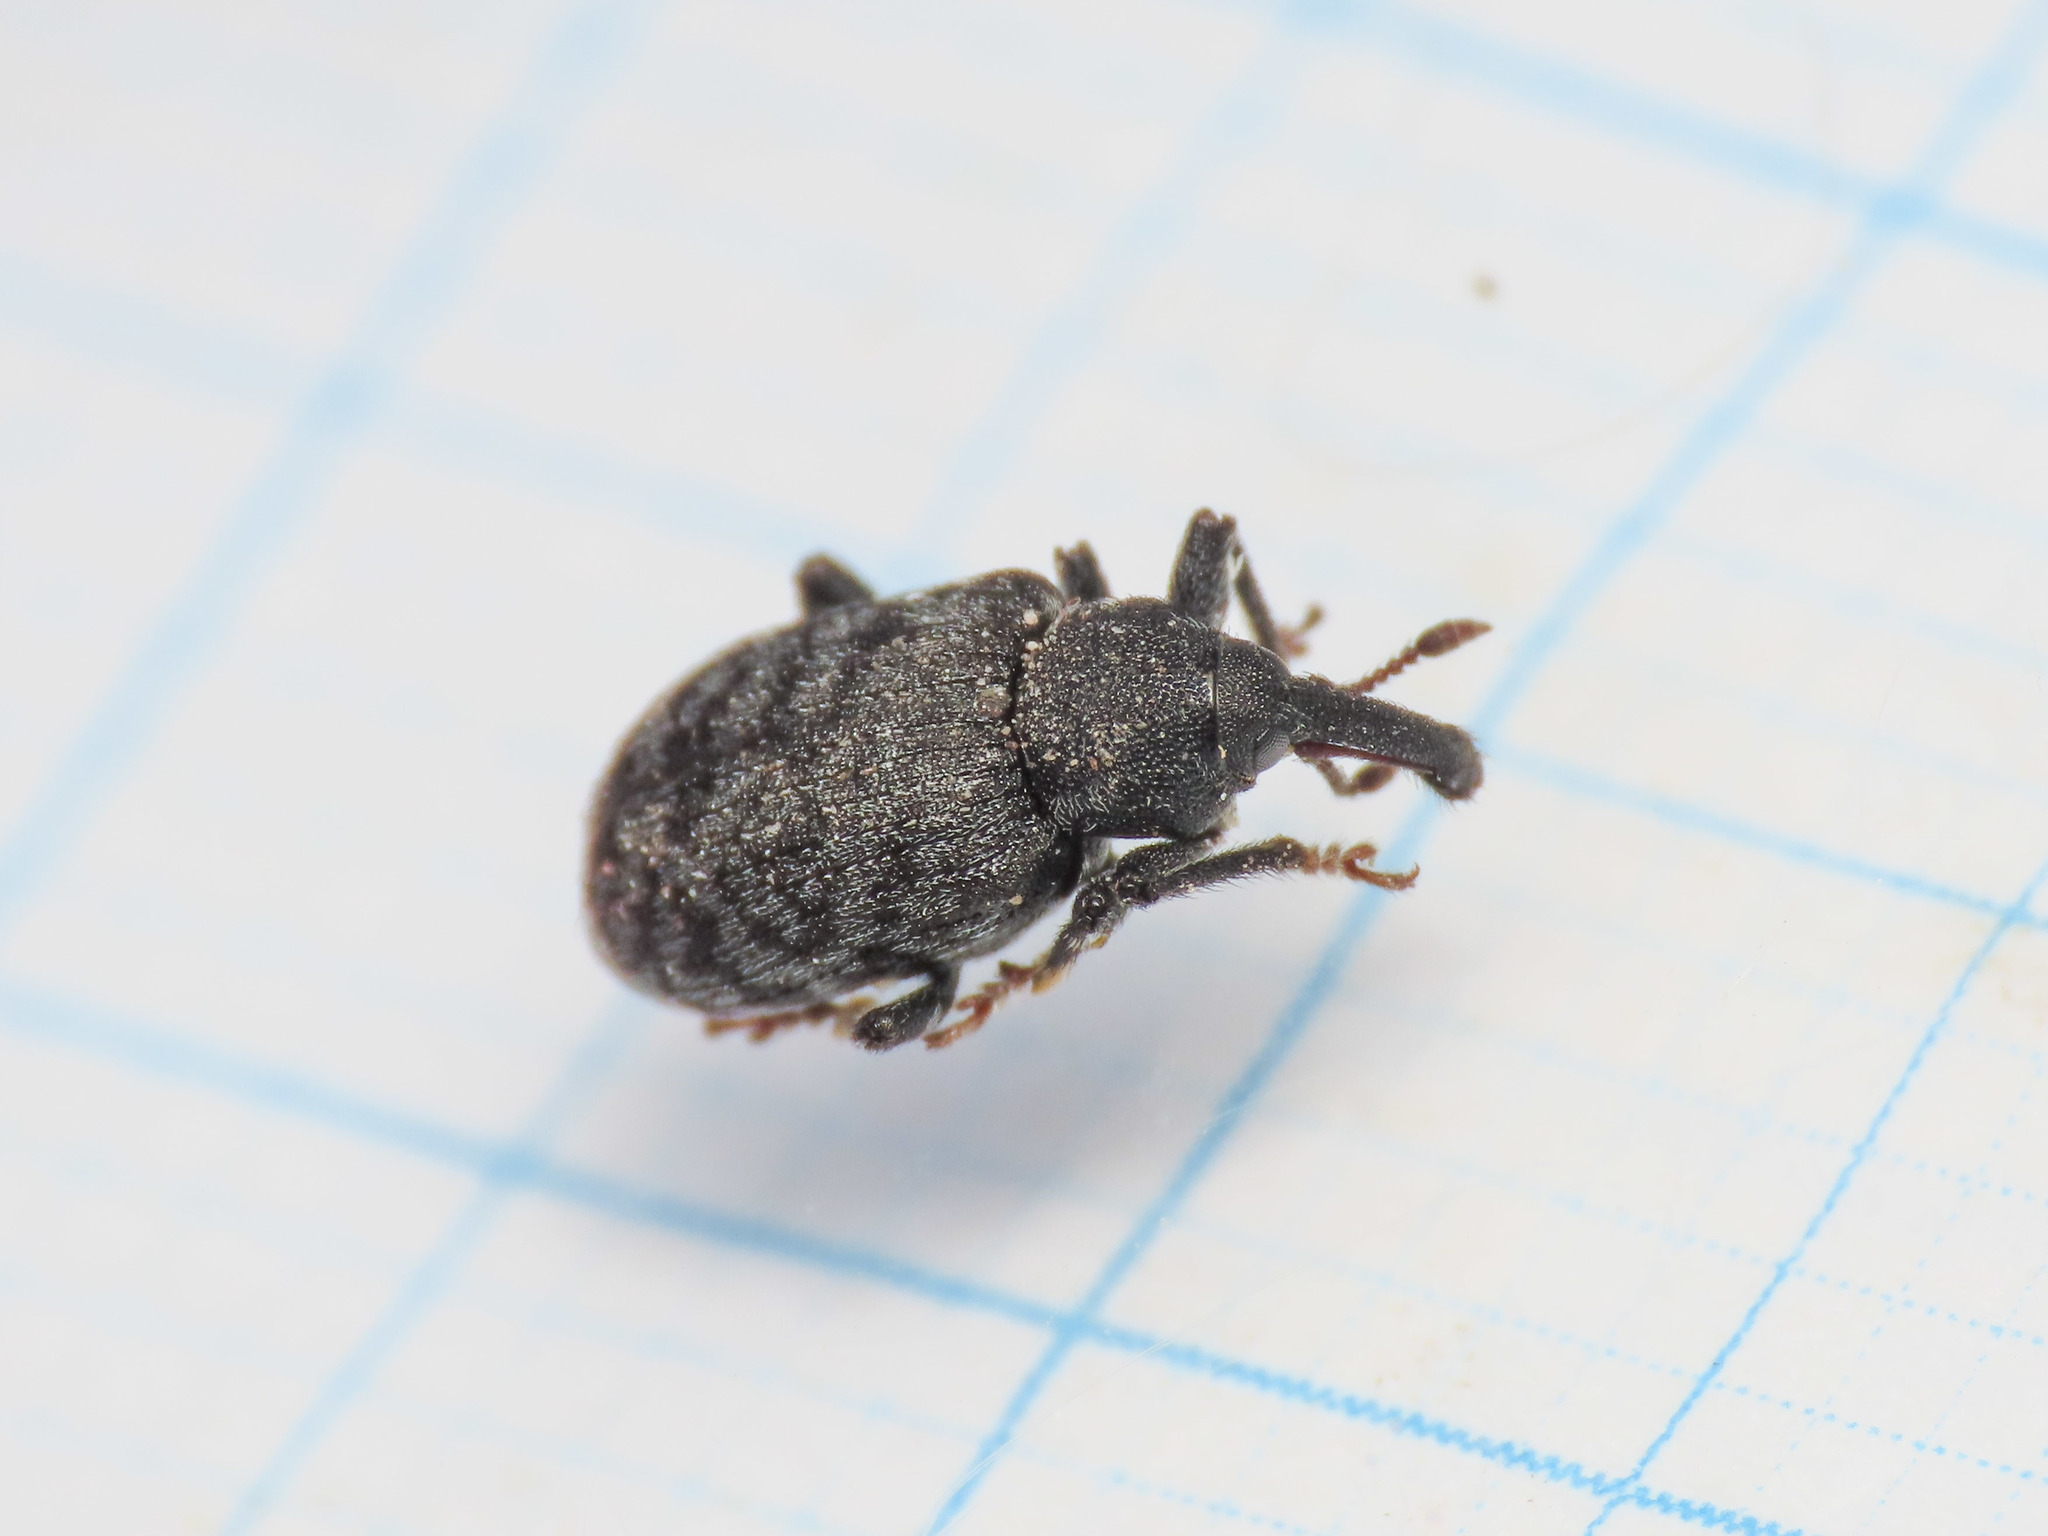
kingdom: Animalia
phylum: Arthropoda
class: Insecta
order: Coleoptera
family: Brachyceridae
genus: Procas
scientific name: Procas armillatus
